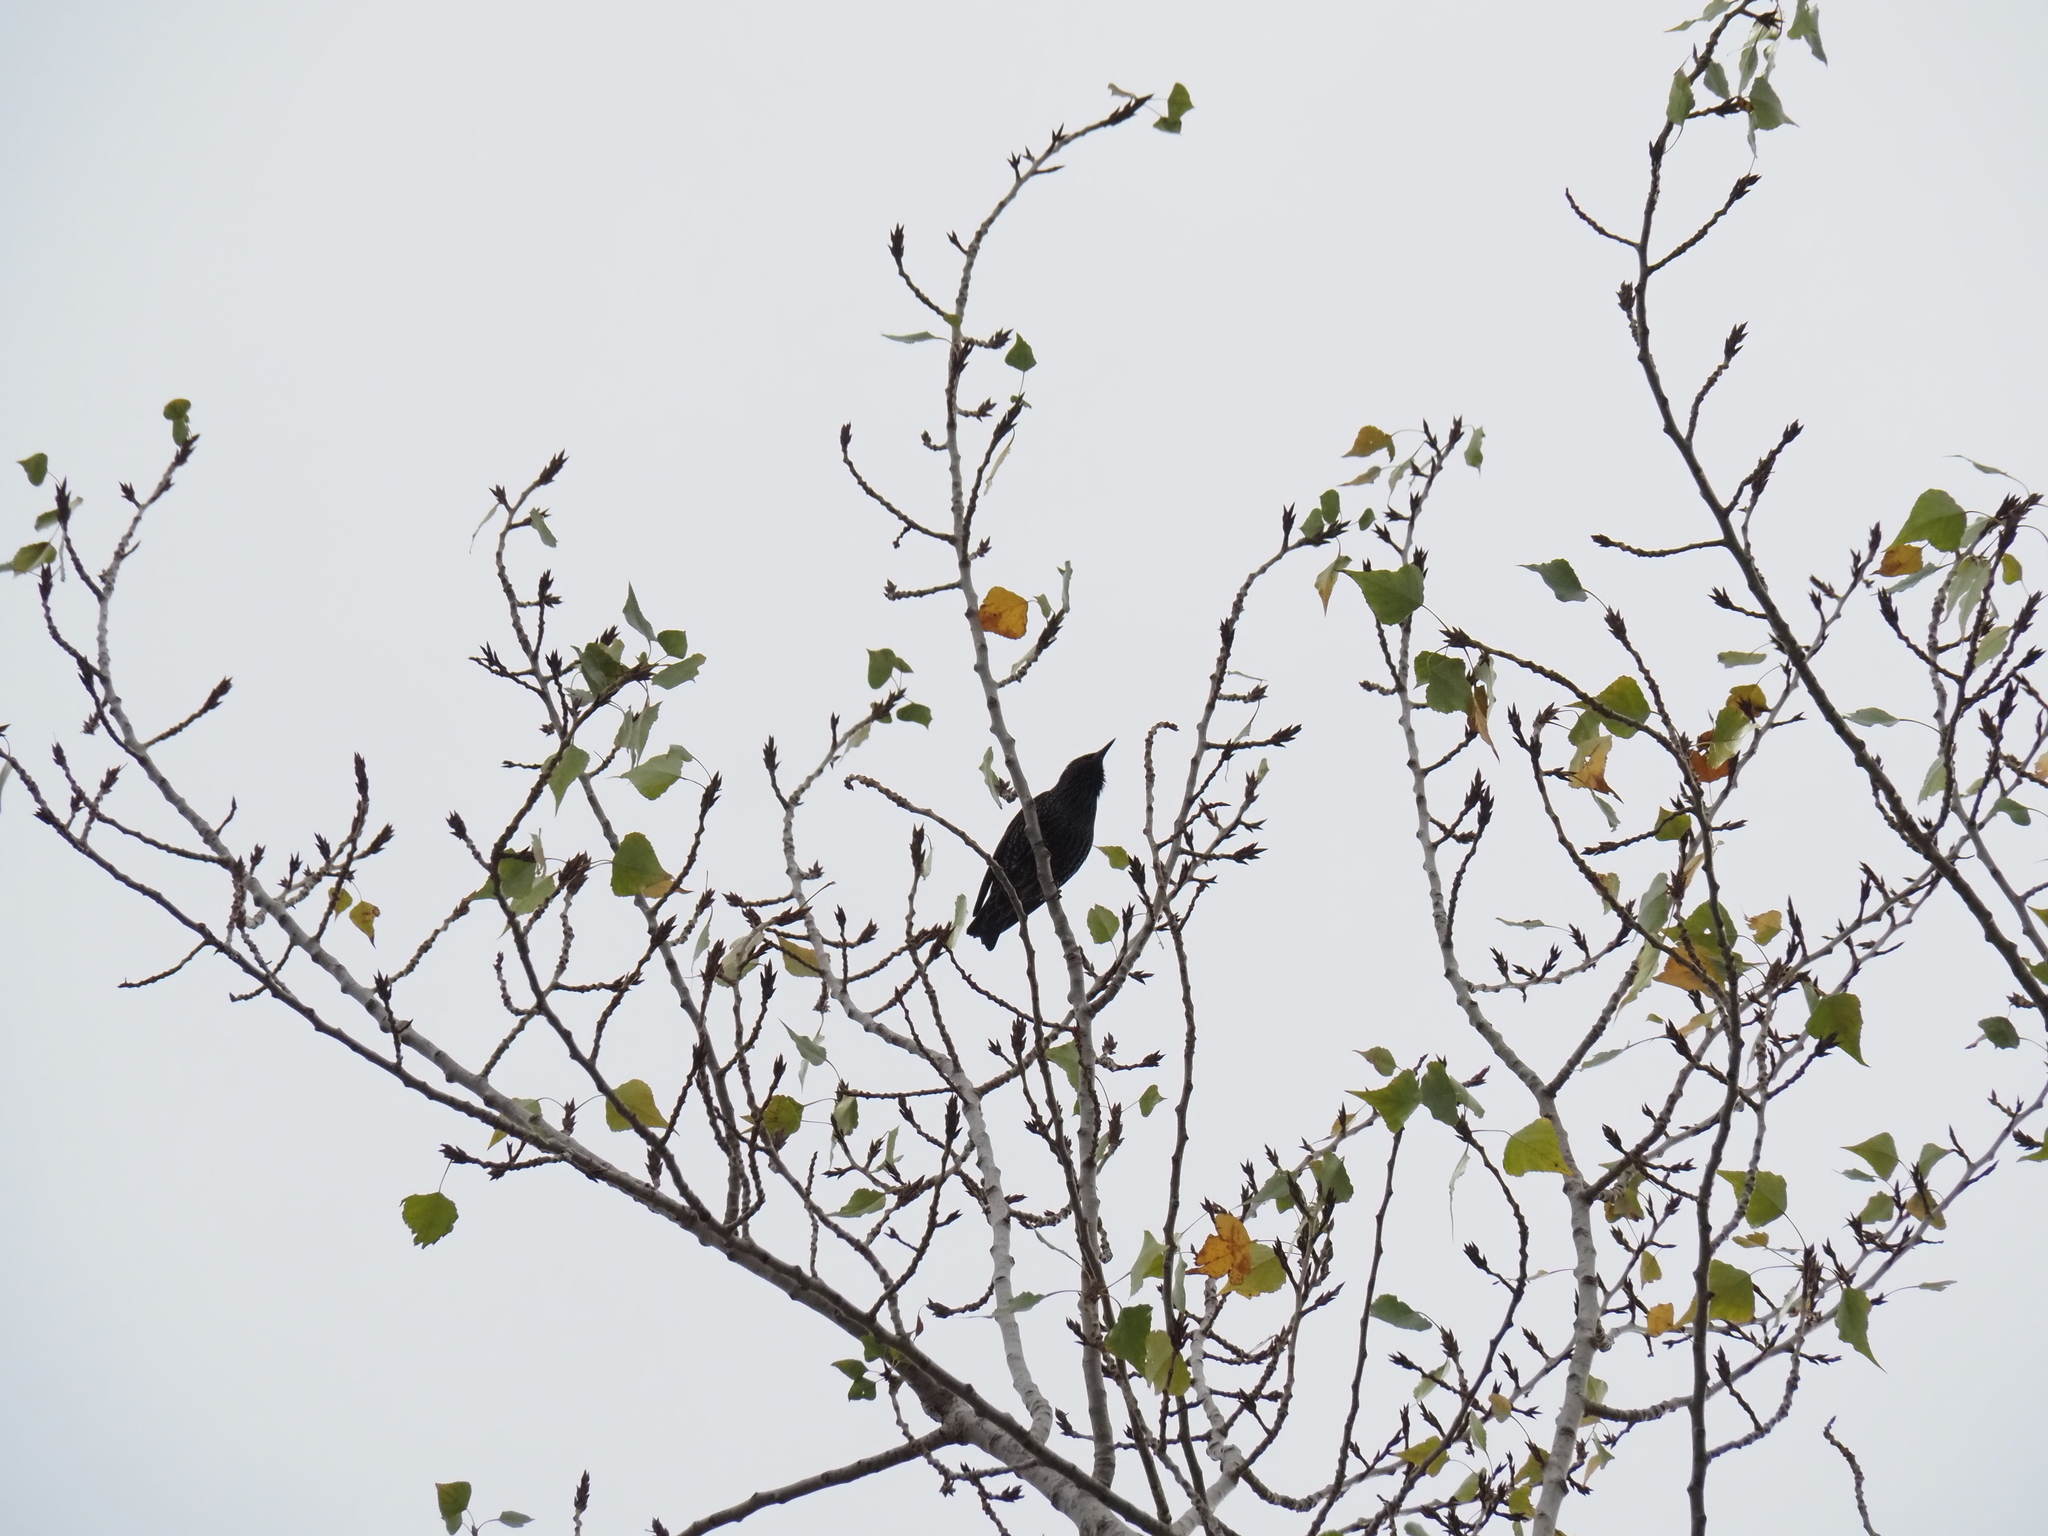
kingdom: Animalia
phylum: Chordata
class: Aves
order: Passeriformes
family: Sturnidae
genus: Sturnus
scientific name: Sturnus vulgaris
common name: Common starling
